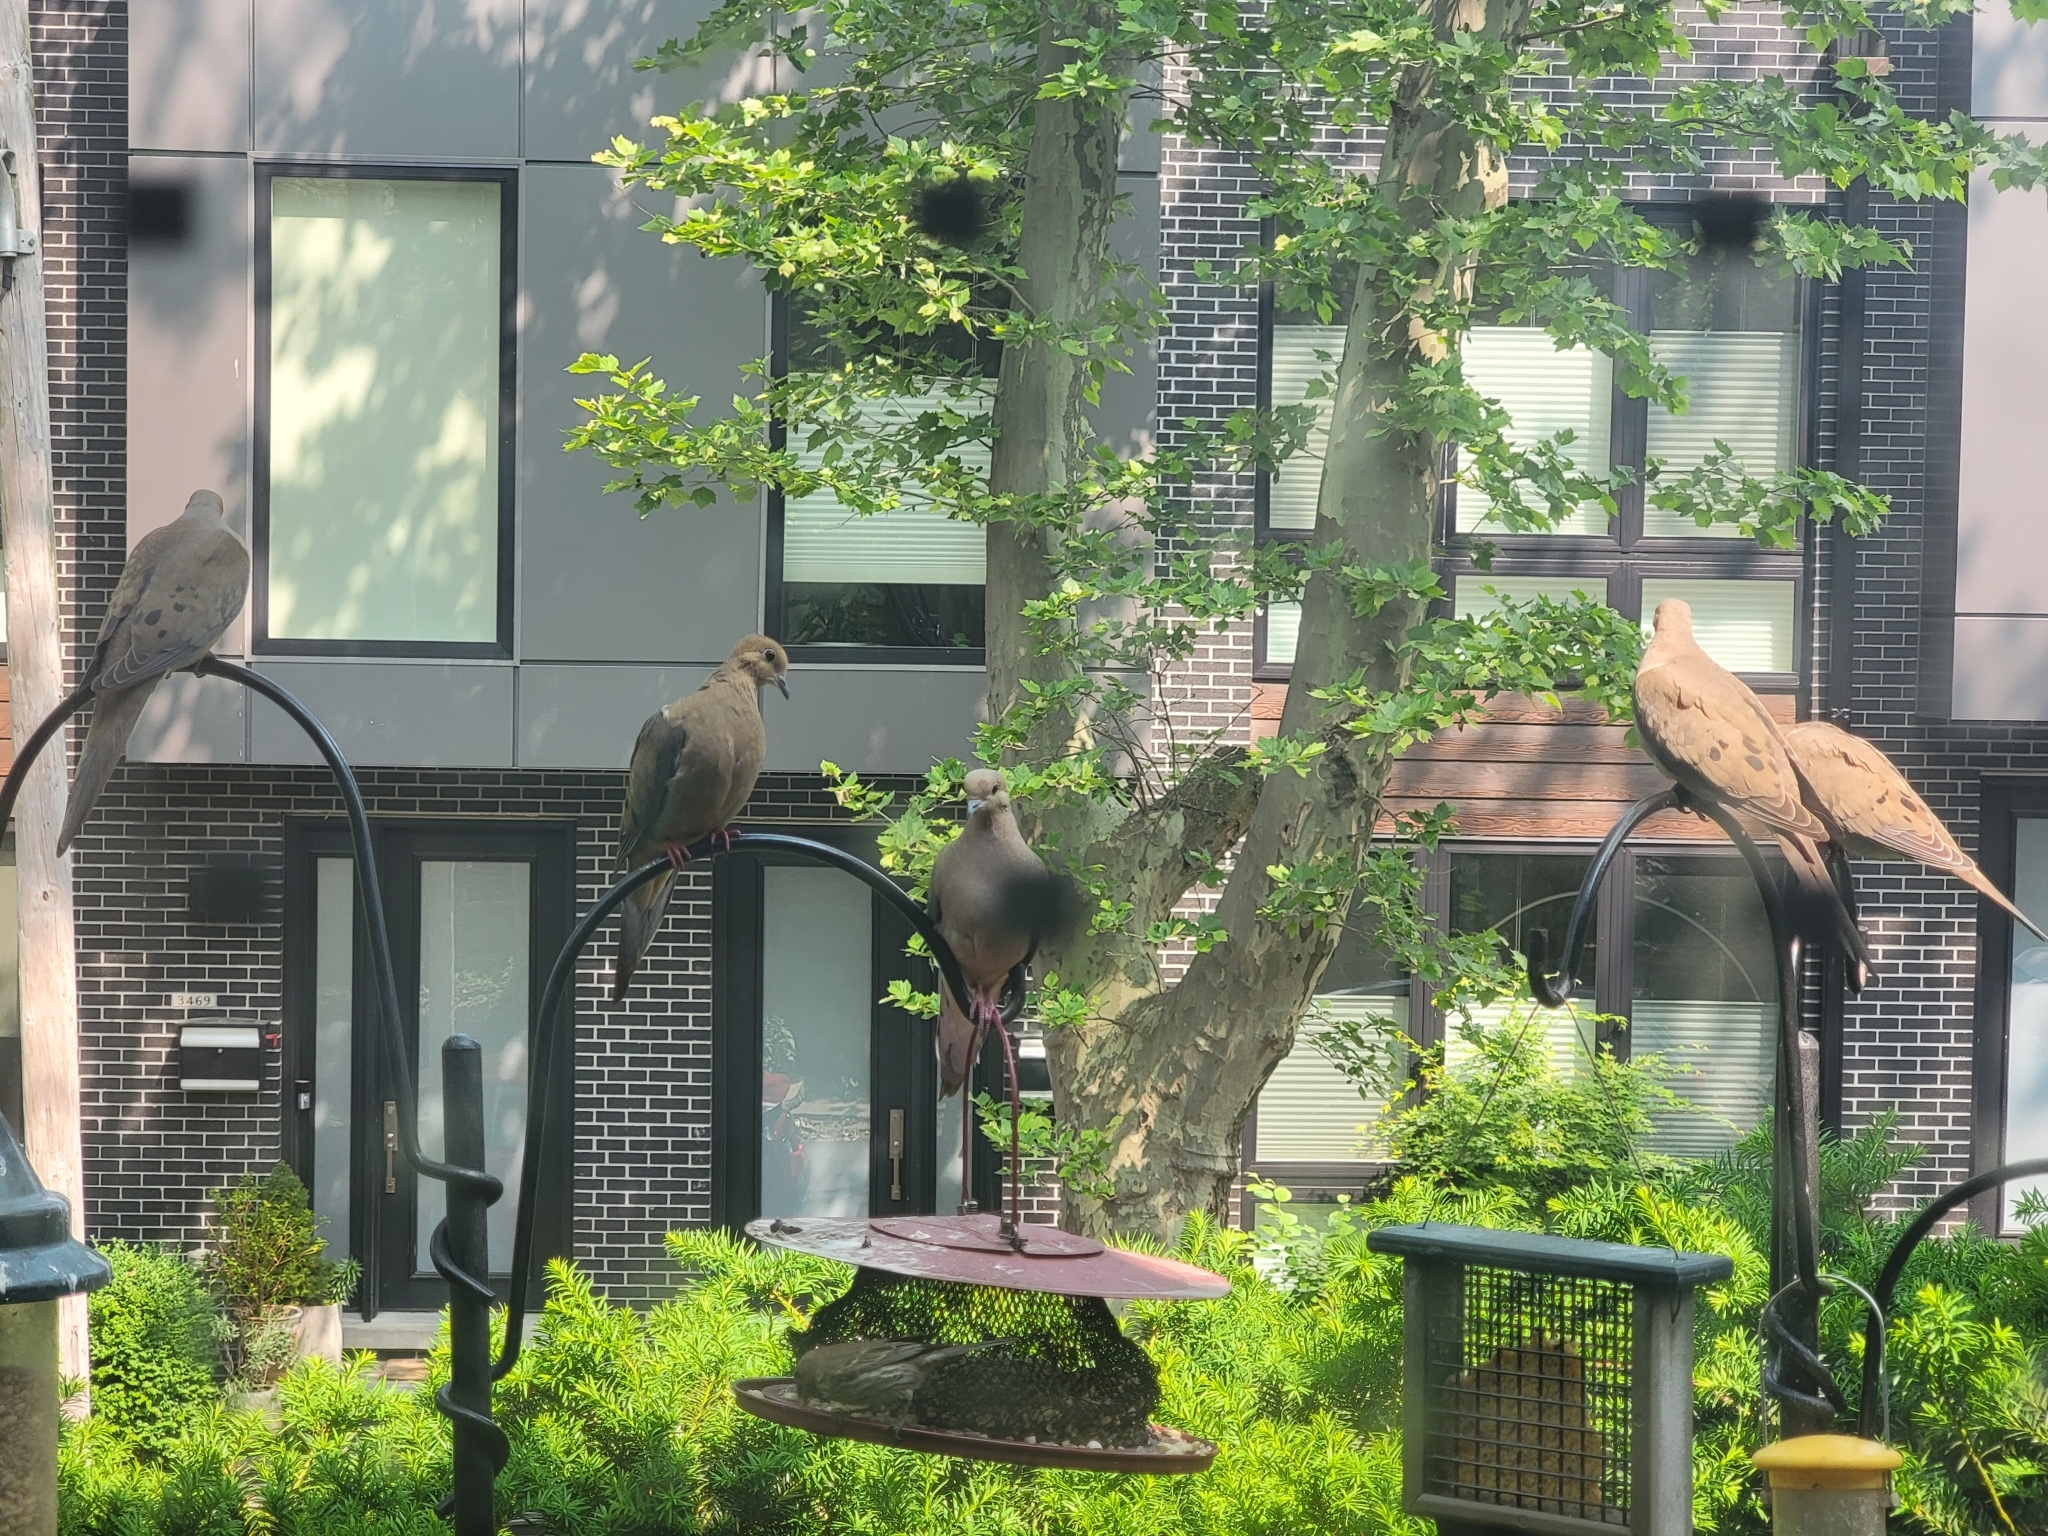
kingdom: Animalia
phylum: Chordata
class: Aves
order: Columbiformes
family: Columbidae
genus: Zenaida
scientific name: Zenaida macroura
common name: Mourning dove
